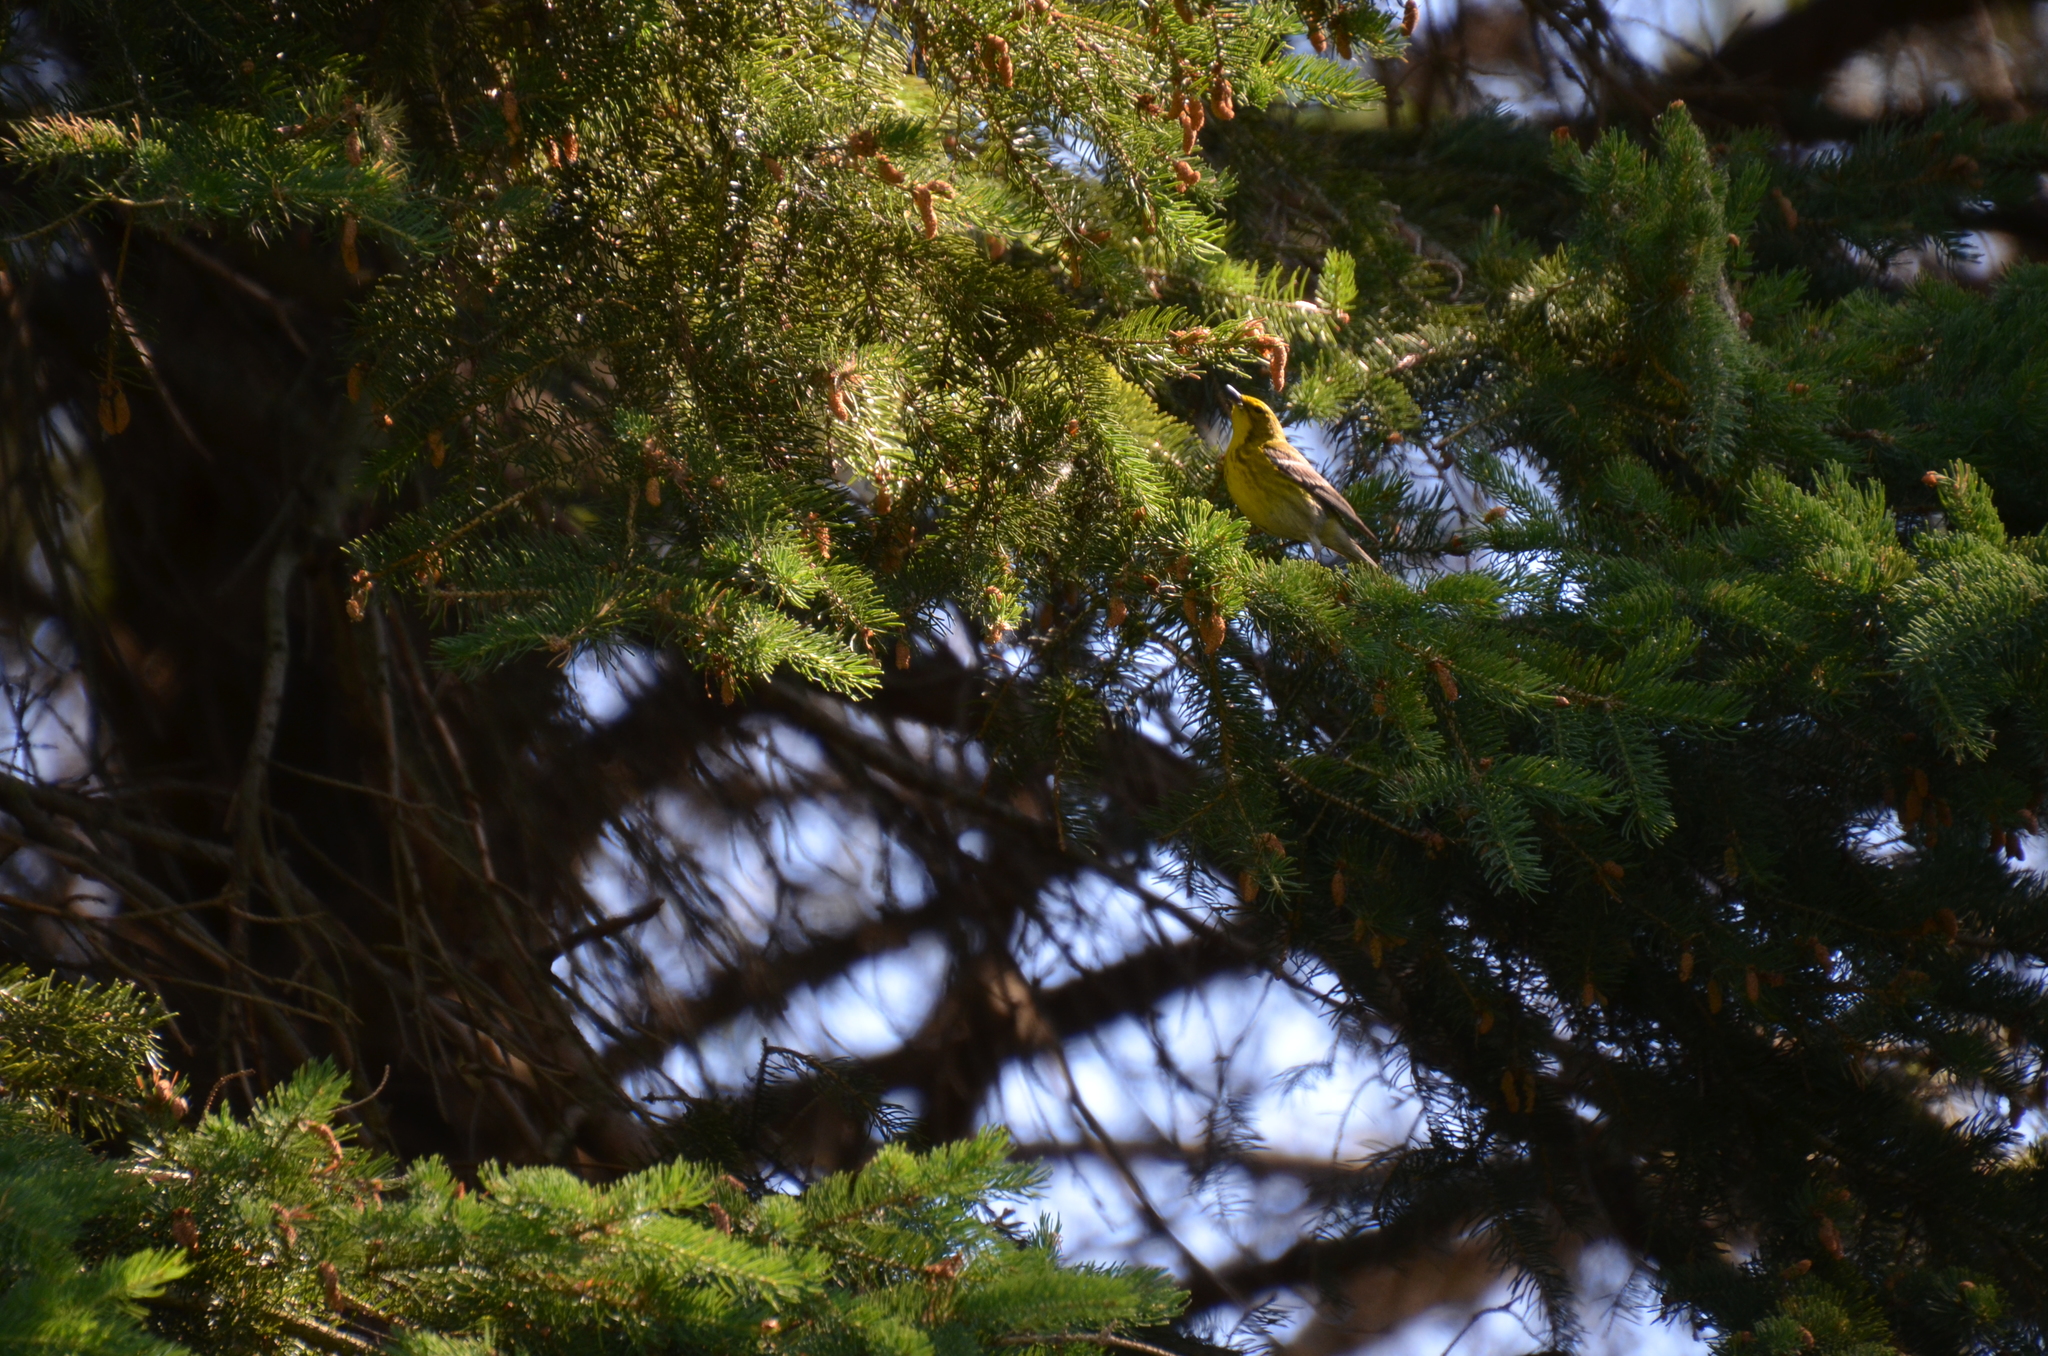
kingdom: Animalia
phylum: Chordata
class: Aves
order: Passeriformes
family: Parulidae
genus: Setophaga
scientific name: Setophaga pinus
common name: Pine warbler
